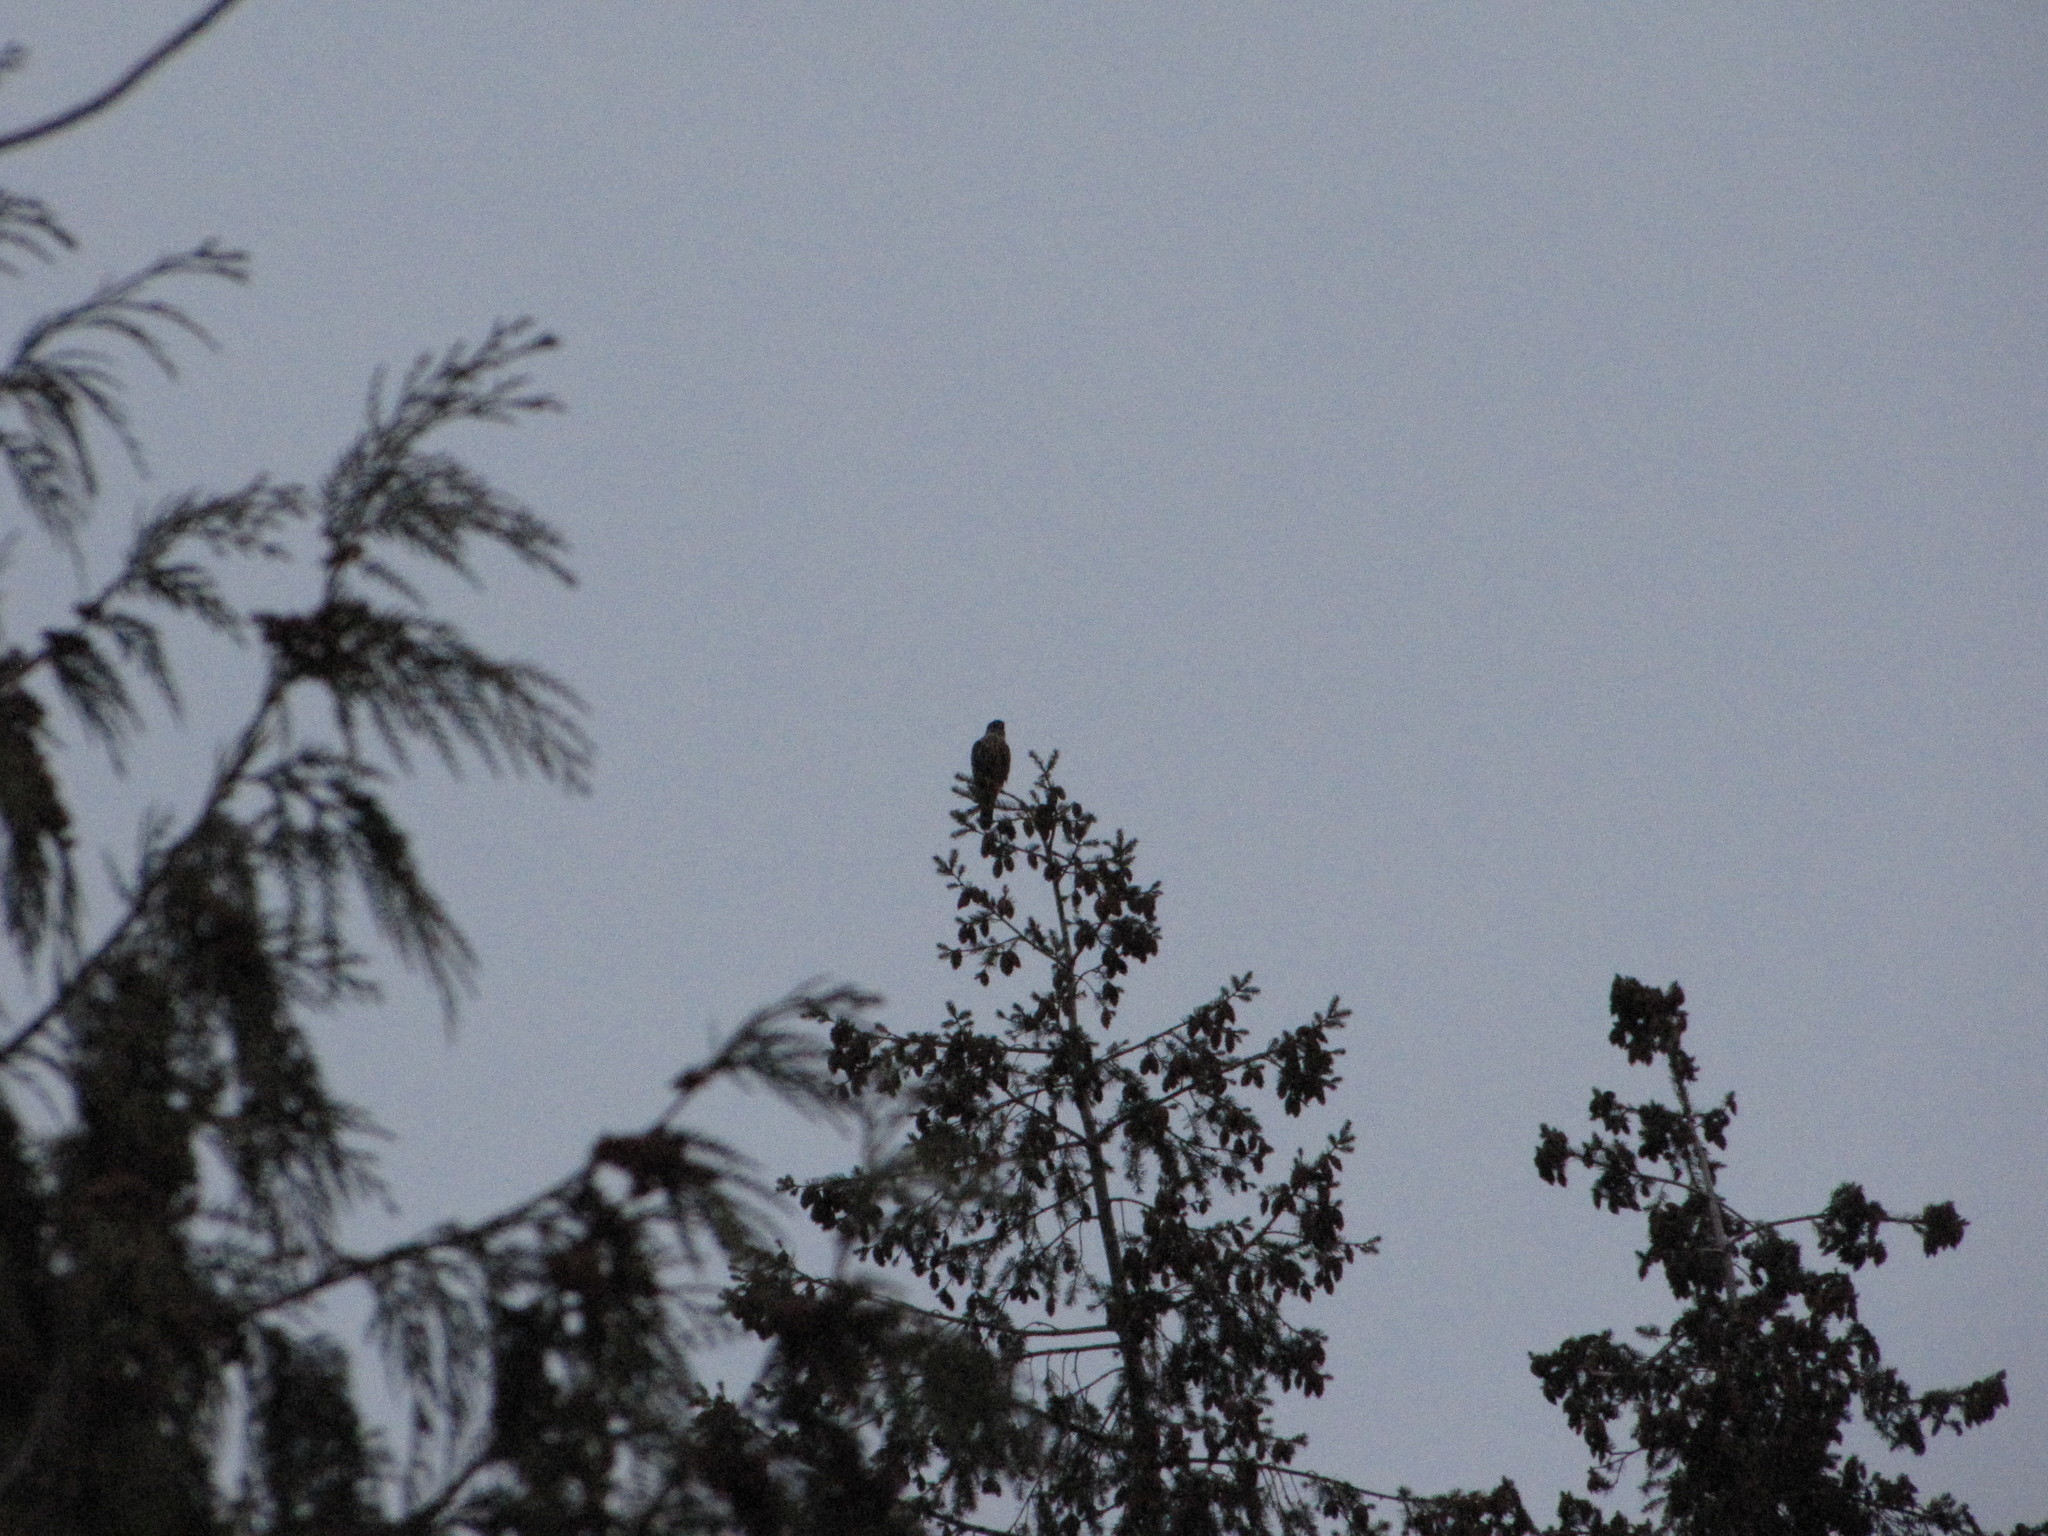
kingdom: Animalia
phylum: Chordata
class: Aves
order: Falconiformes
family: Falconidae
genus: Falco
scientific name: Falco columbarius
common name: Merlin
